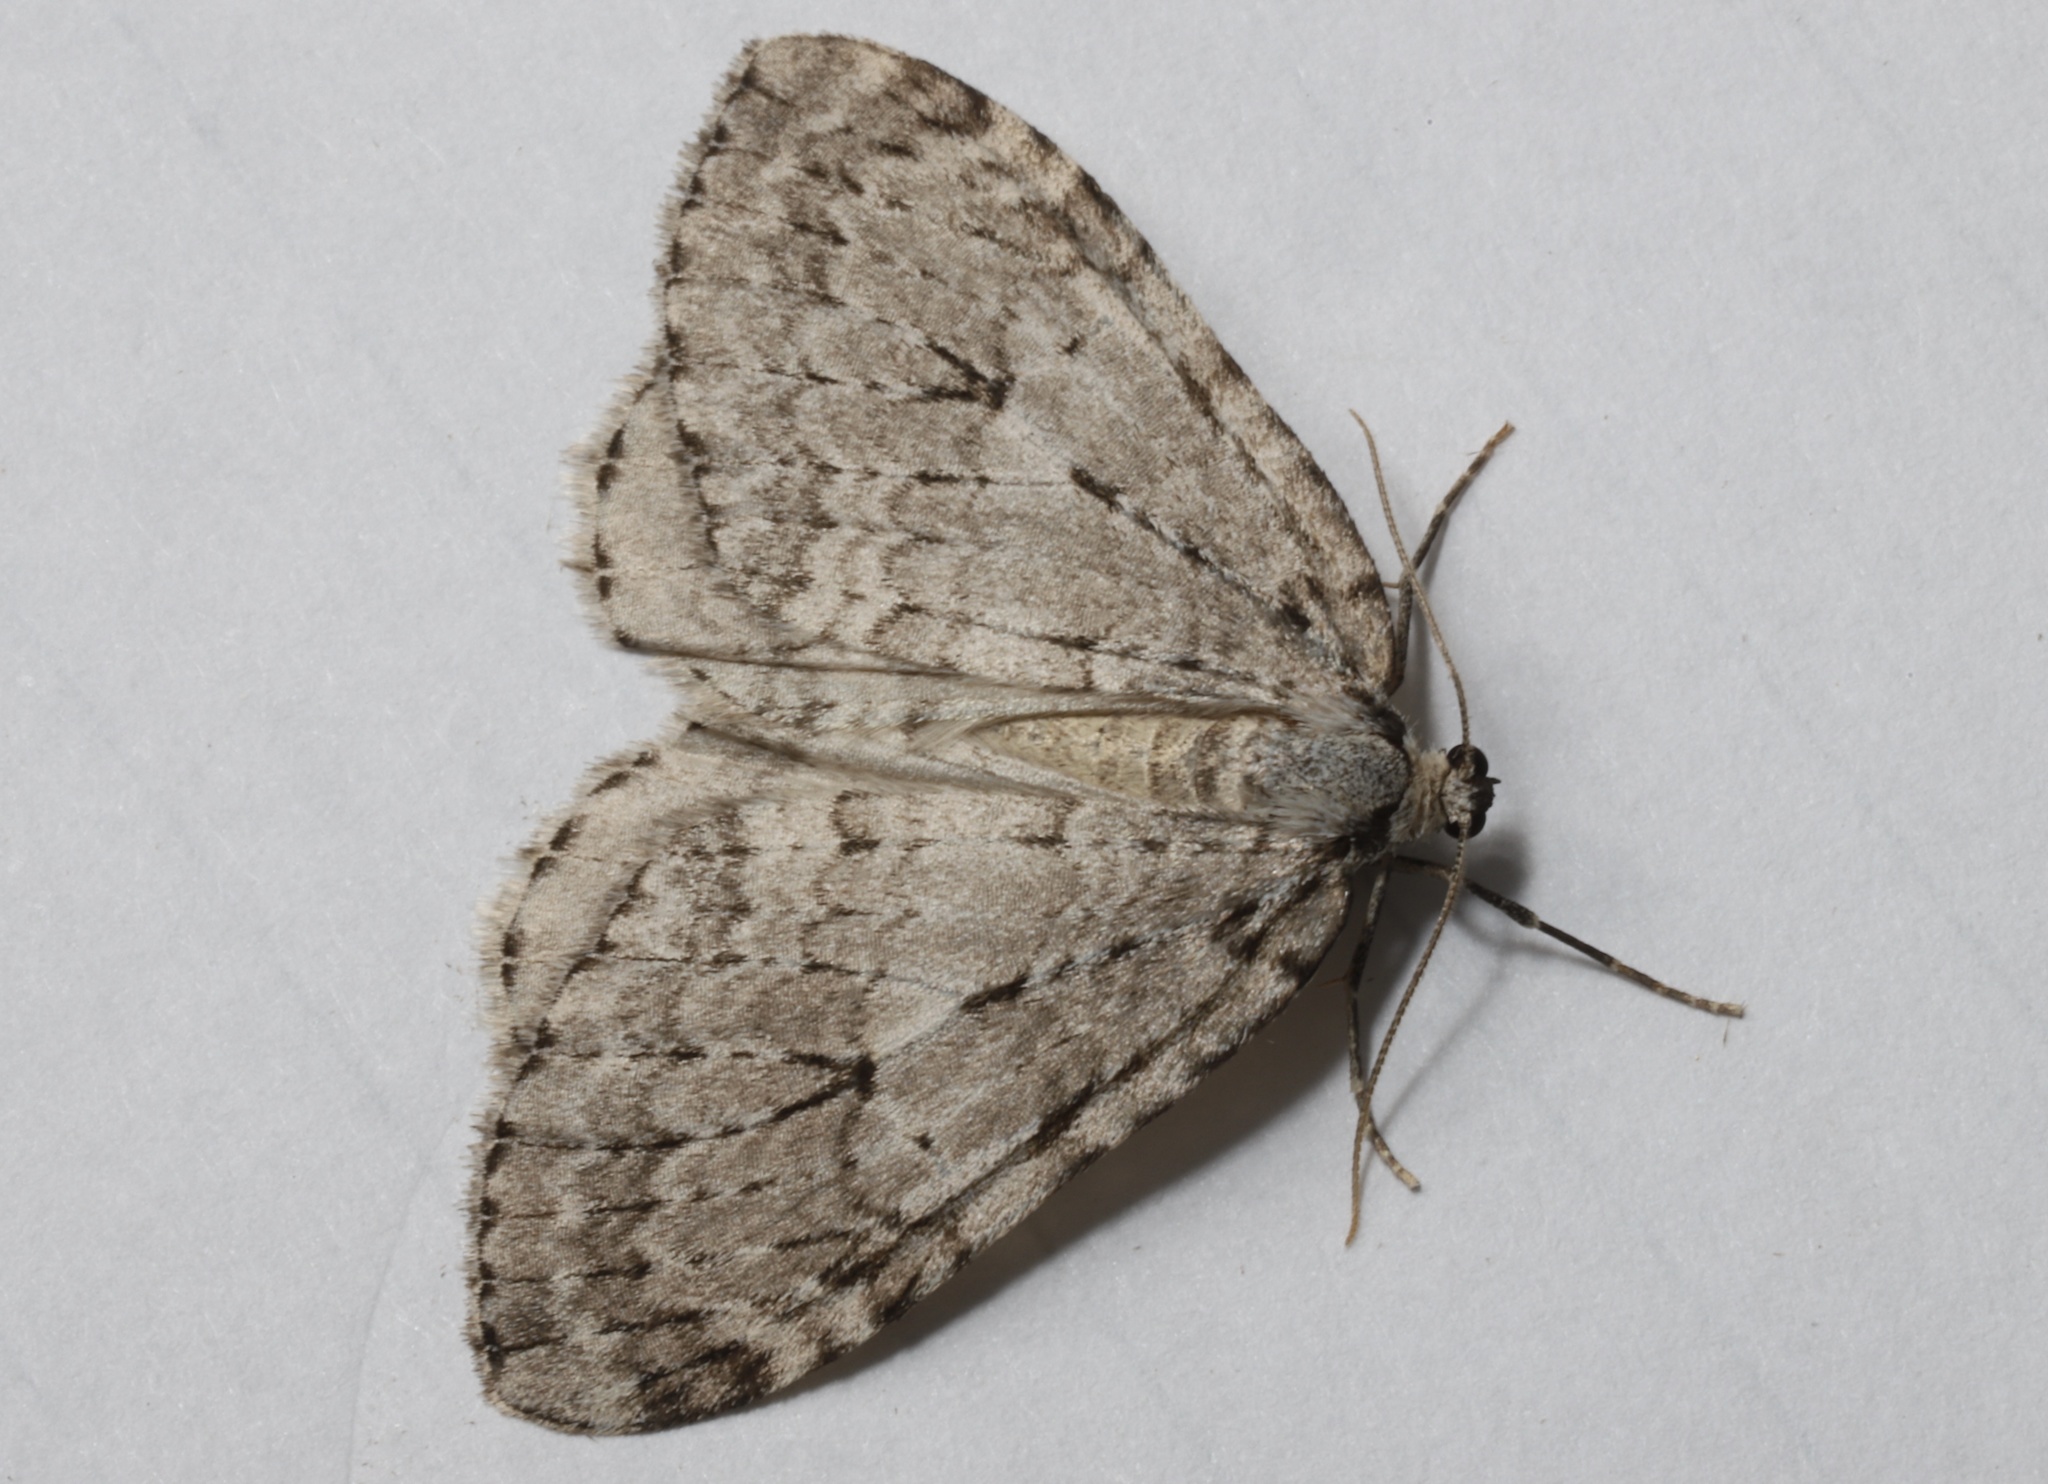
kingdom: Animalia
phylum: Arthropoda
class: Insecta
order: Lepidoptera
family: Geometridae
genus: Epirrita
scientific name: Epirrita autumnata
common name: Autumnal moth
